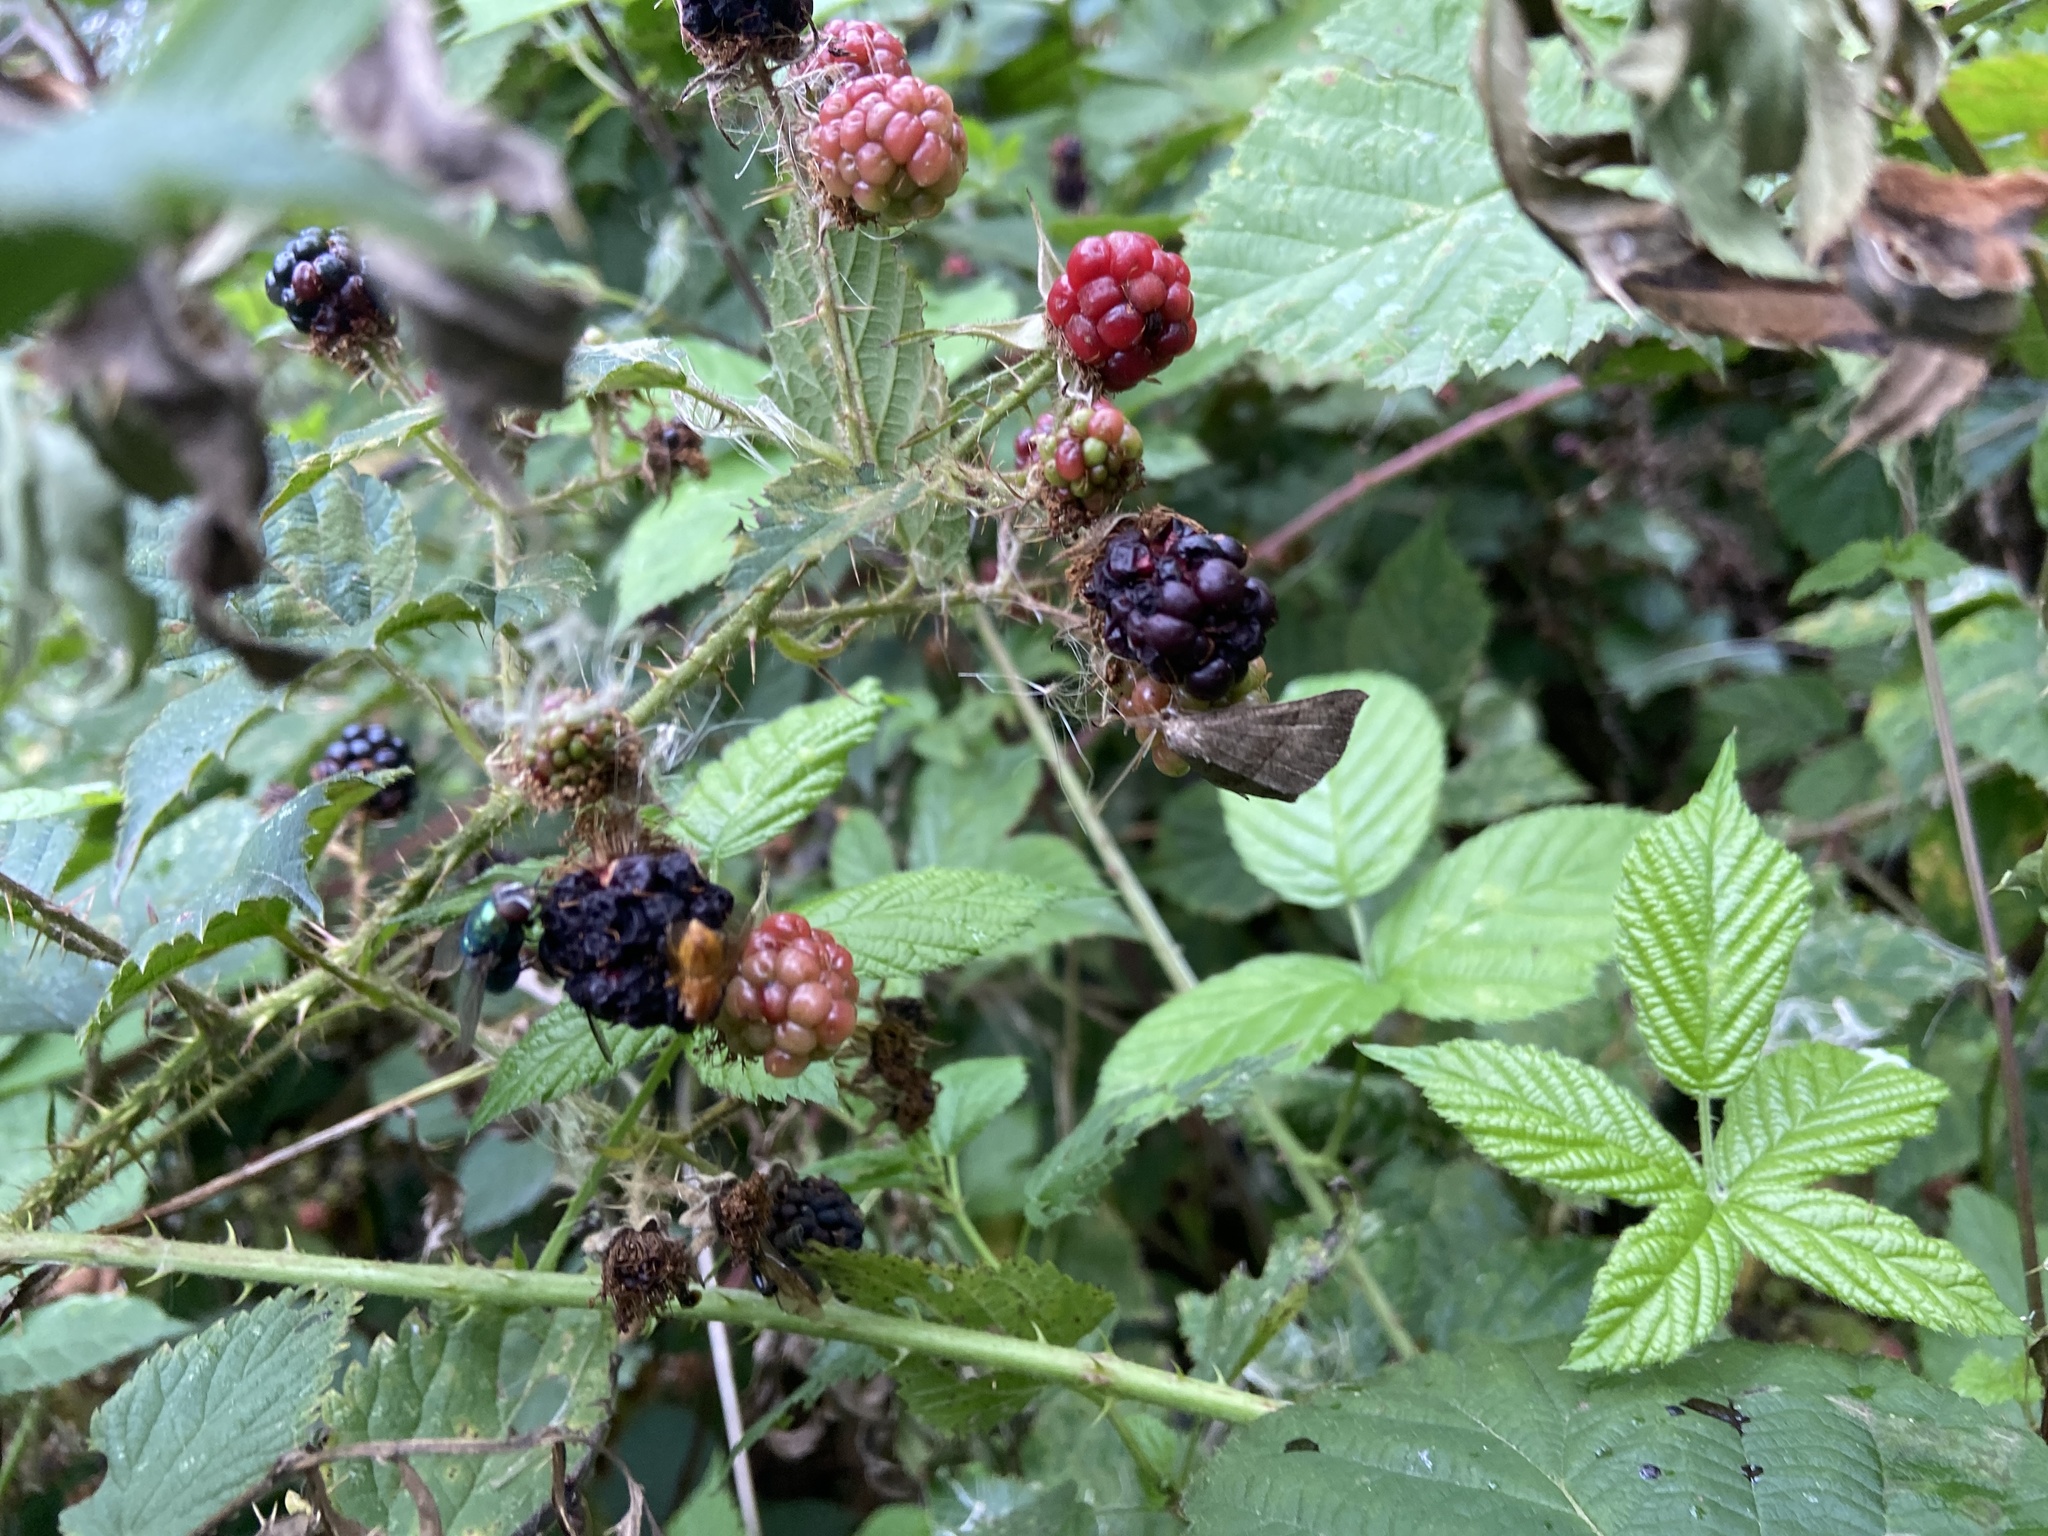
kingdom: Animalia
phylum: Arthropoda
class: Insecta
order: Lepidoptera
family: Erebidae
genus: Hypena
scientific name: Hypena proboscidalis
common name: Snout
